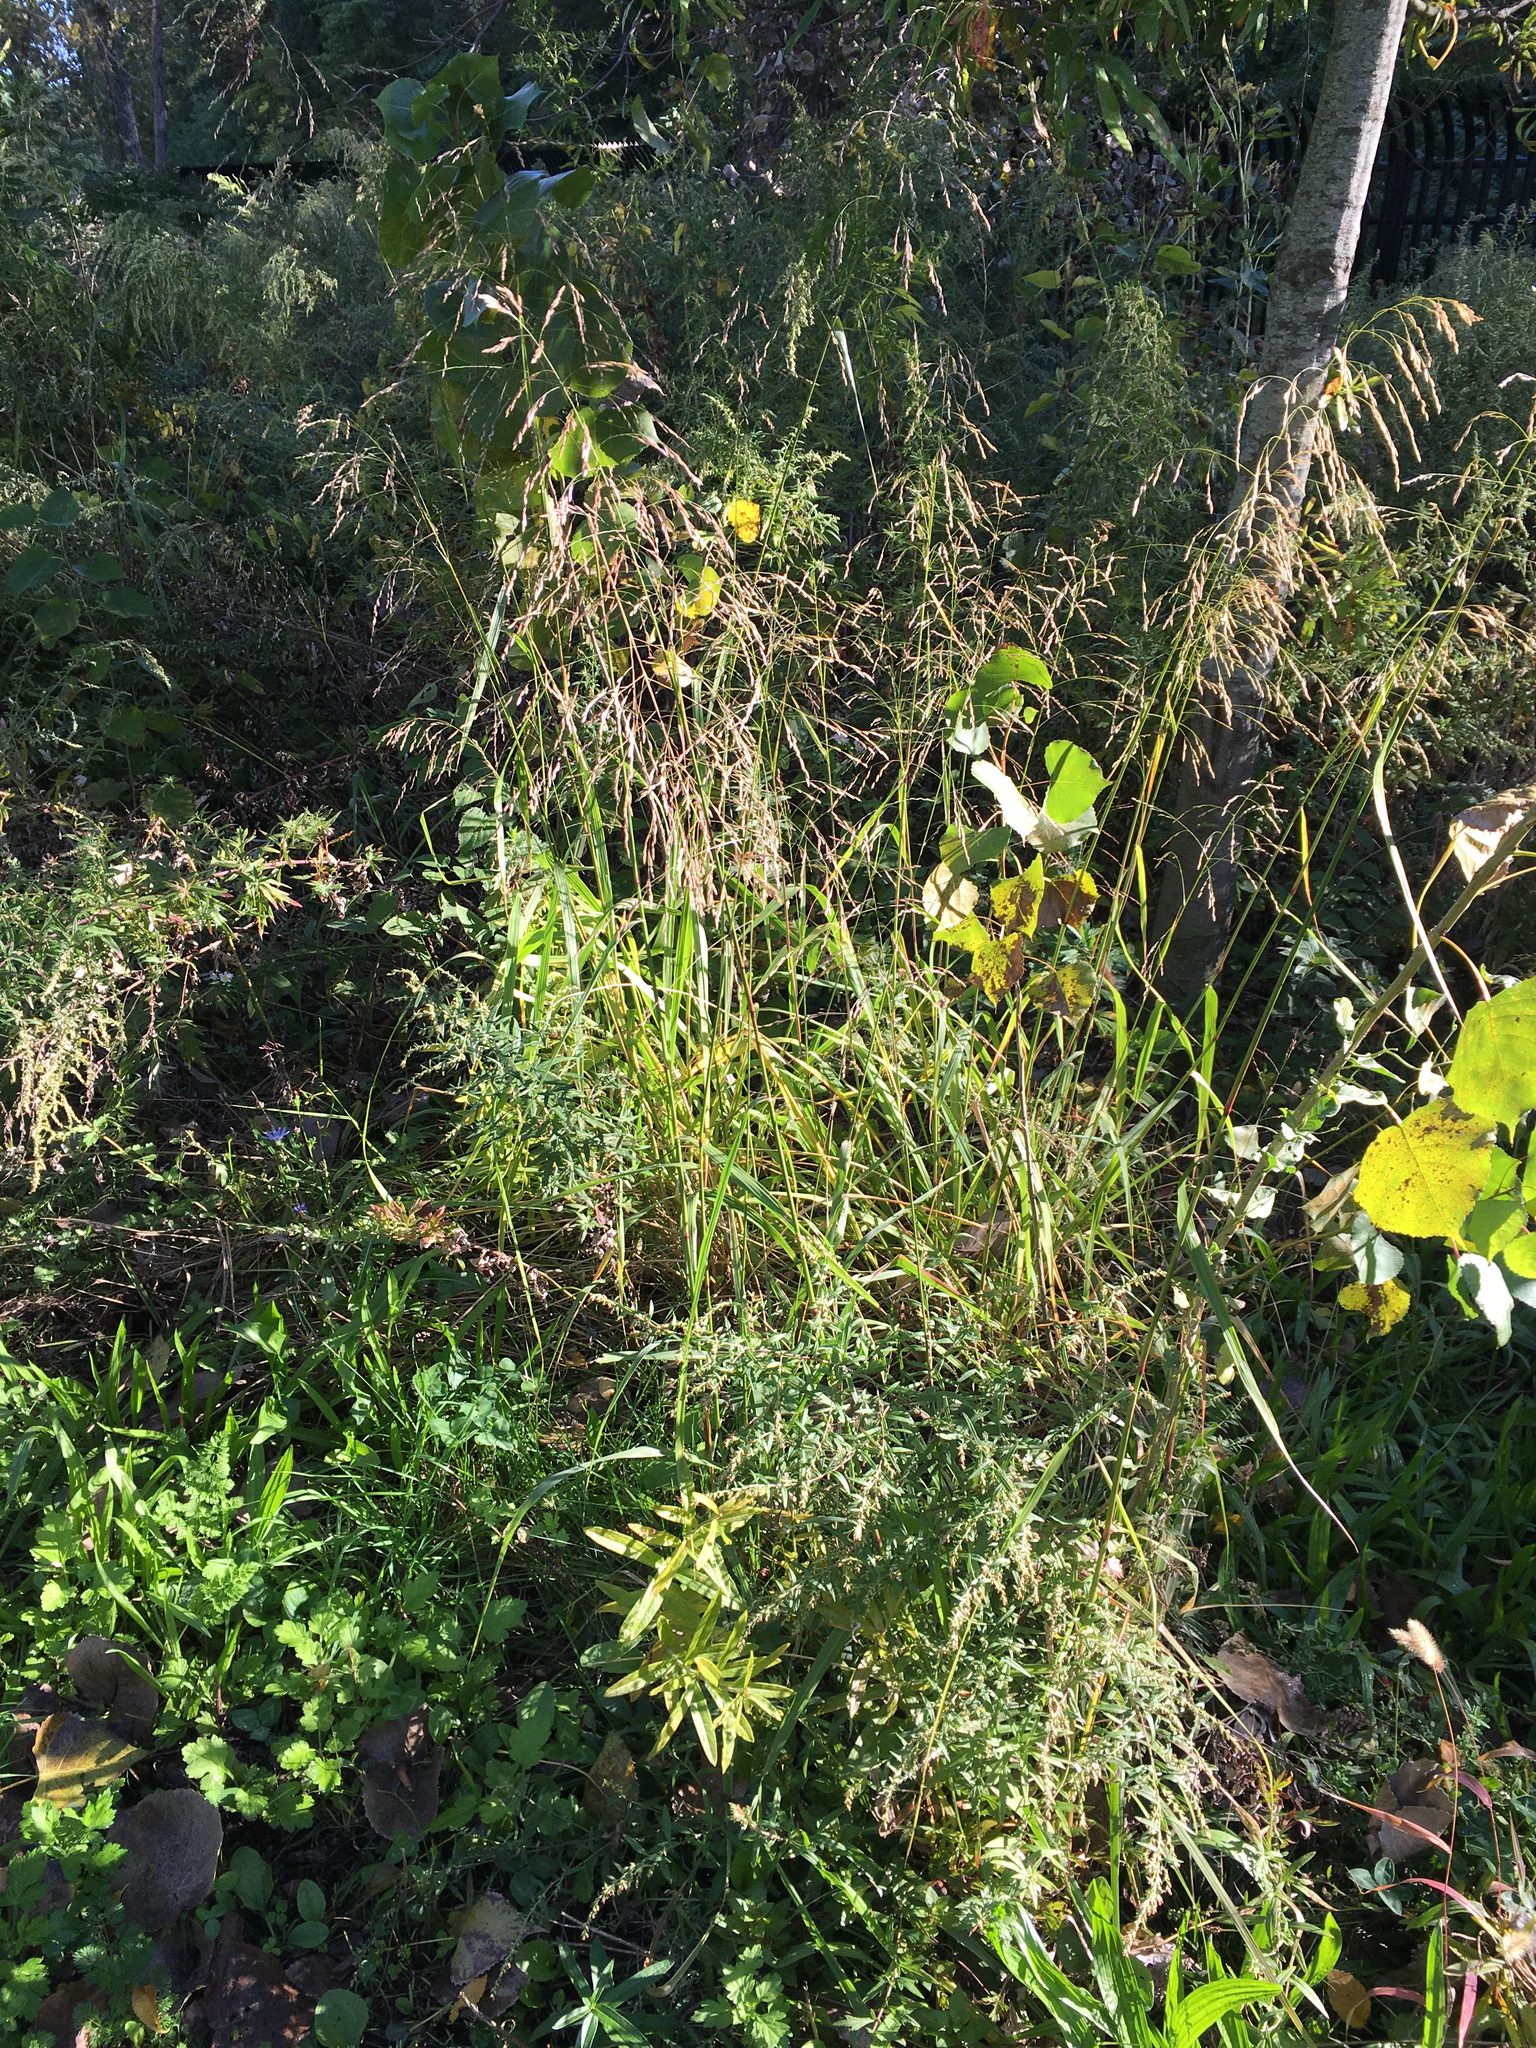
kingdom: Plantae
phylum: Tracheophyta
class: Liliopsida
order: Poales
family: Poaceae
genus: Tridens
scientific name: Tridens flavus
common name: Purpletop
